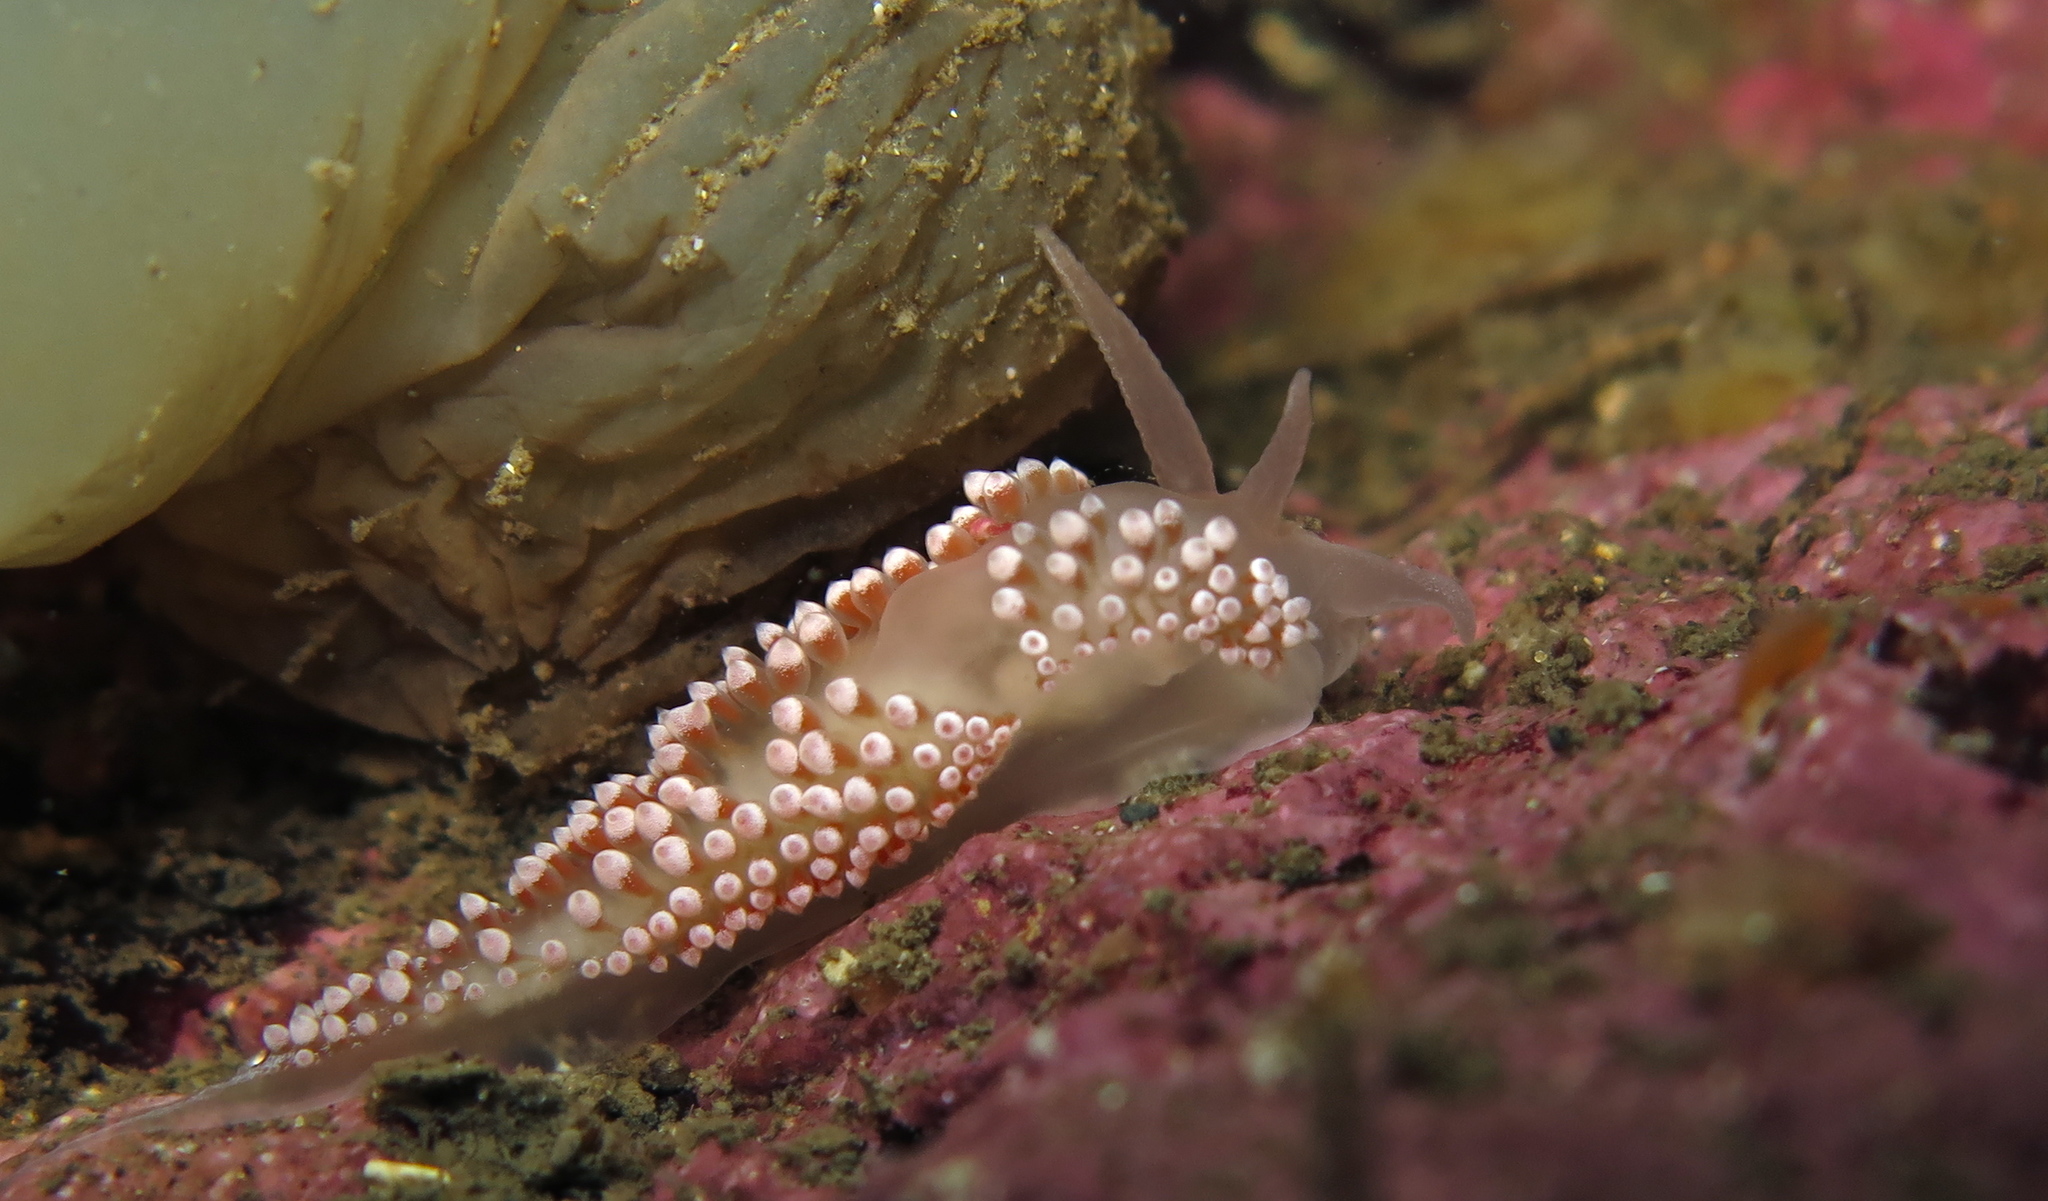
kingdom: Animalia
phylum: Mollusca
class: Gastropoda
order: Nudibranchia
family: Coryphellidae
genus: Coryphella
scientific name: Coryphella verrucosa
